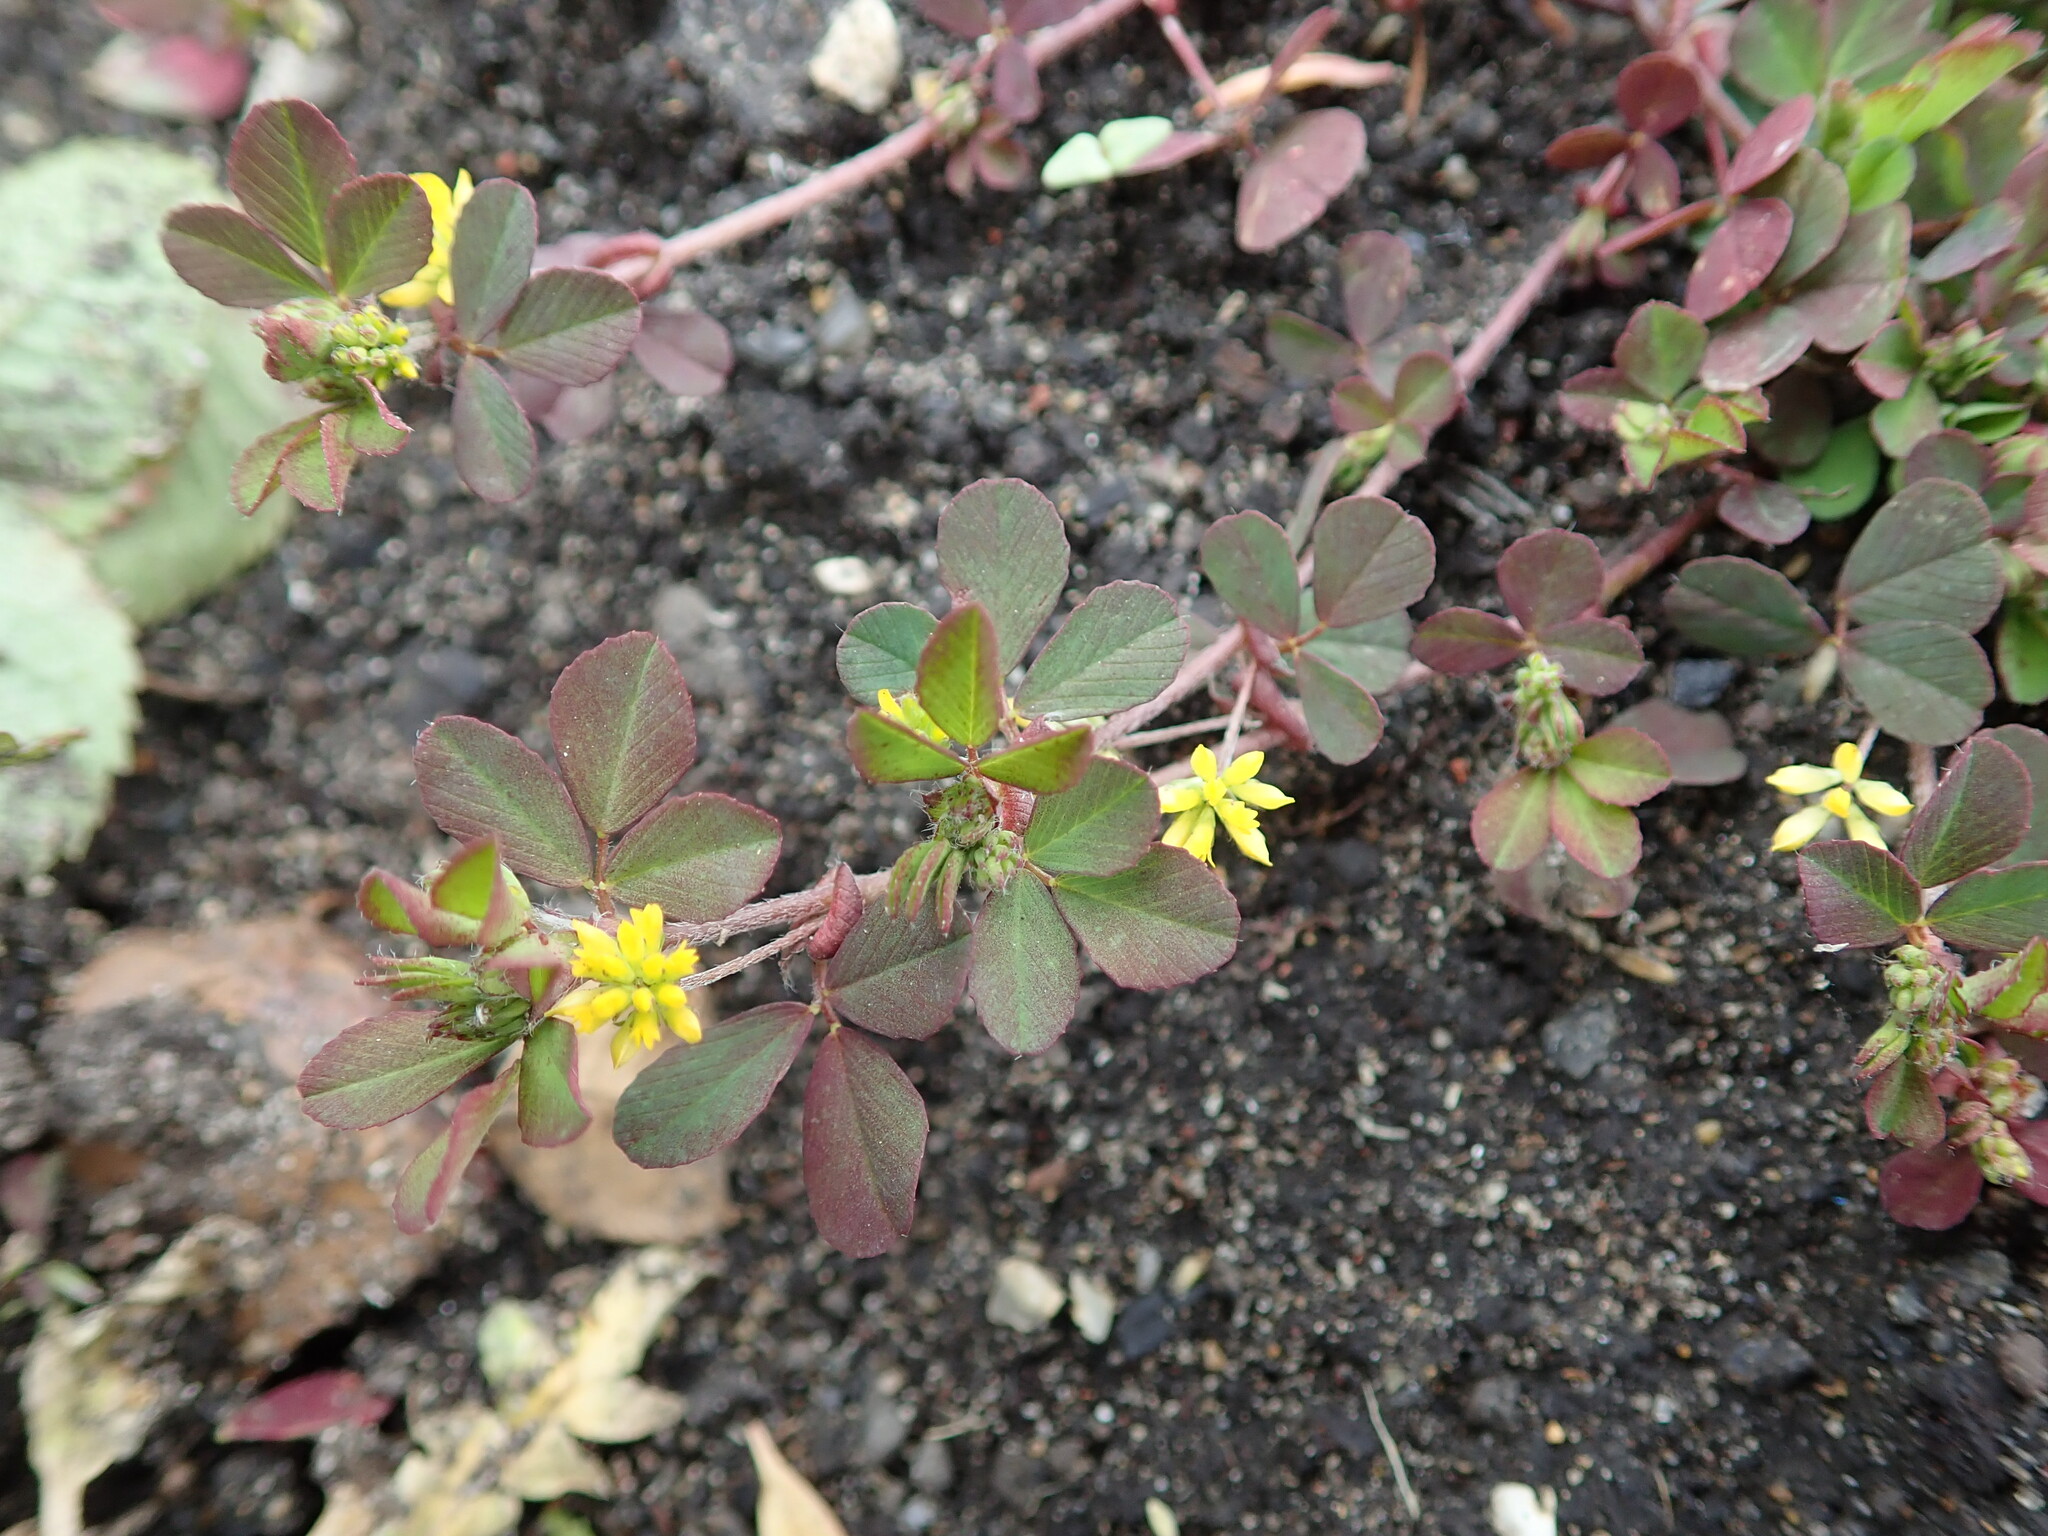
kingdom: Plantae
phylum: Tracheophyta
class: Magnoliopsida
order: Fabales
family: Fabaceae
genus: Trifolium
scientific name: Trifolium dubium
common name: Suckling clover
